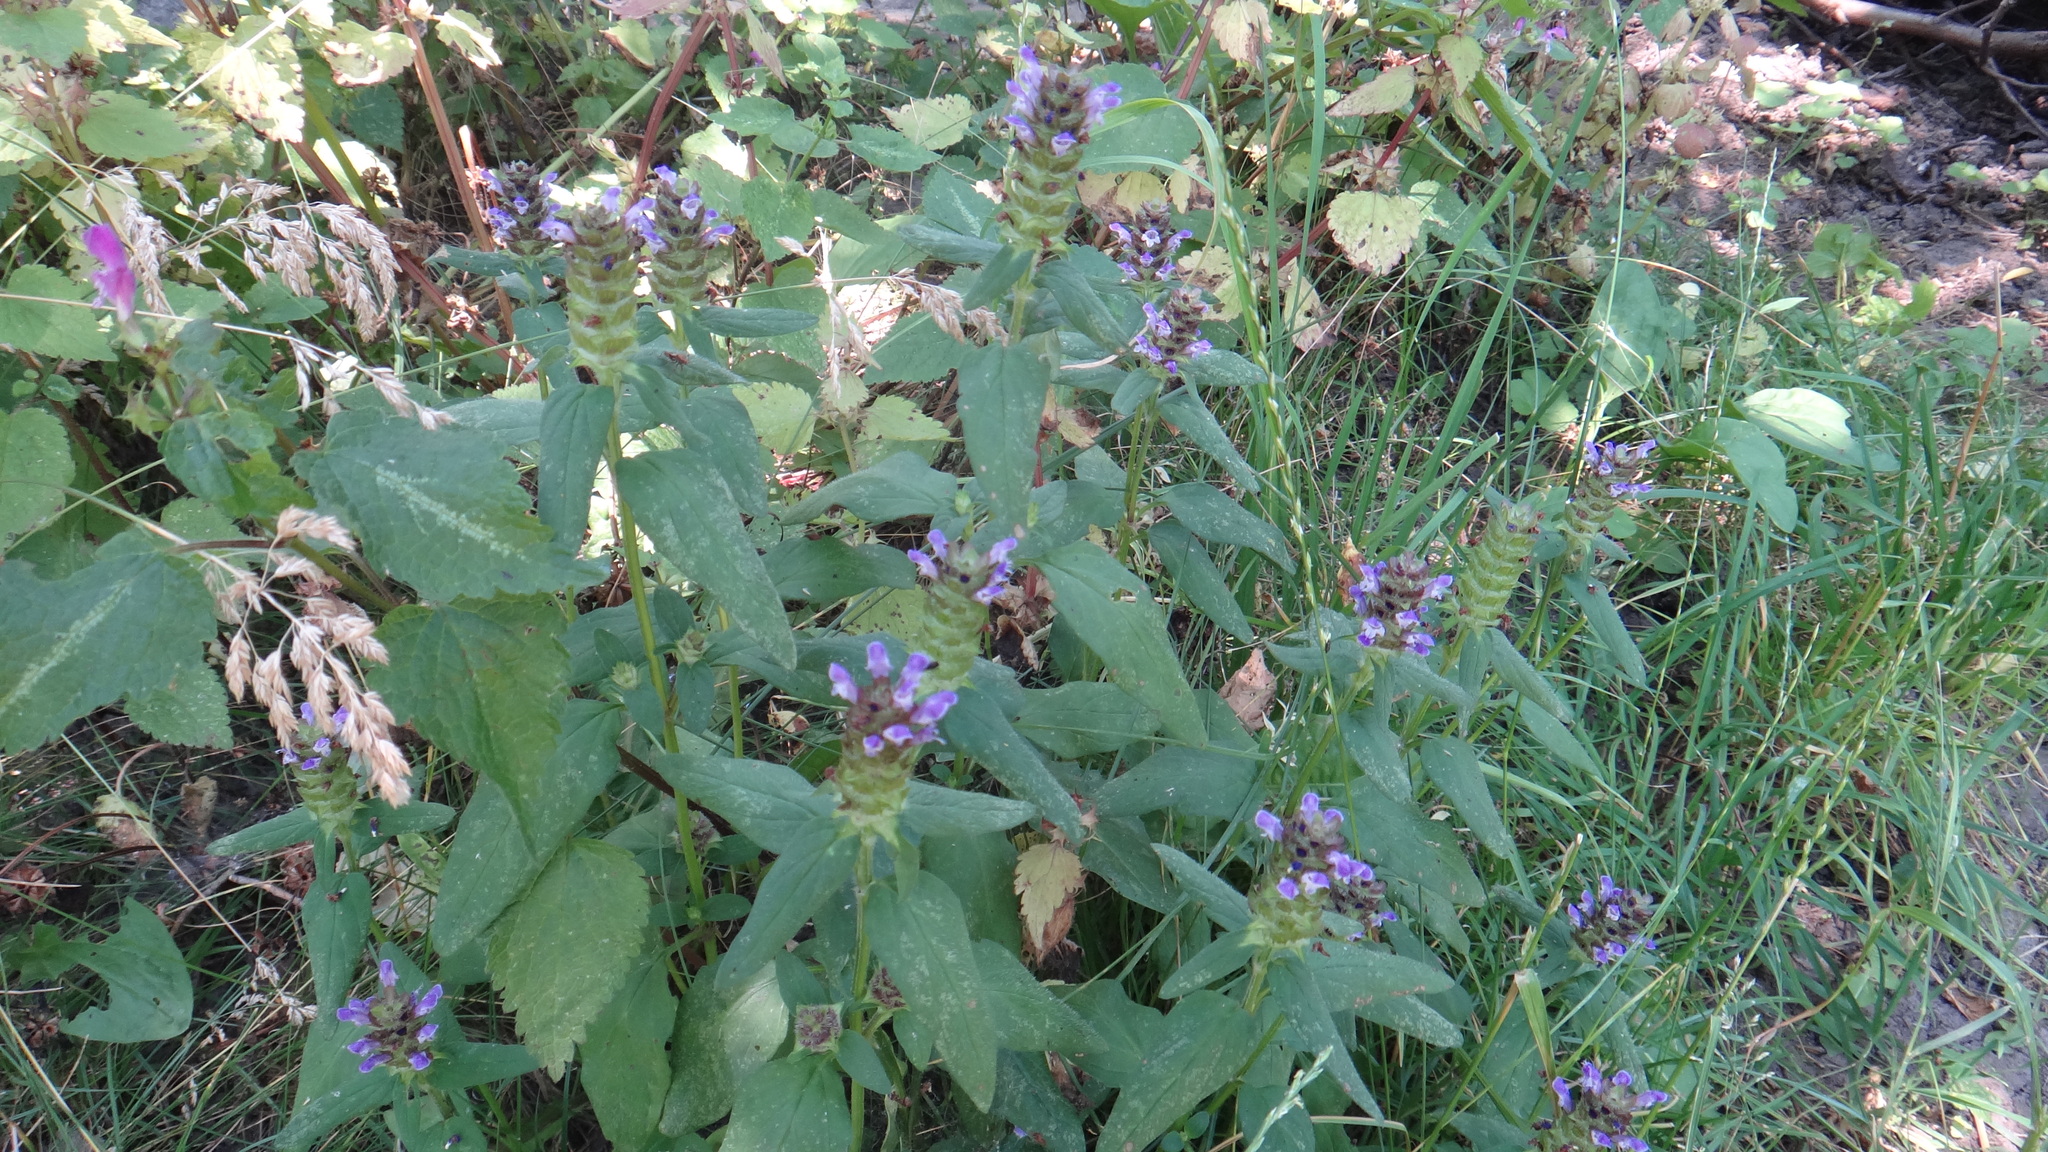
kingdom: Plantae
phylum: Tracheophyta
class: Magnoliopsida
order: Lamiales
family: Lamiaceae
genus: Prunella
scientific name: Prunella vulgaris
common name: Heal-all
